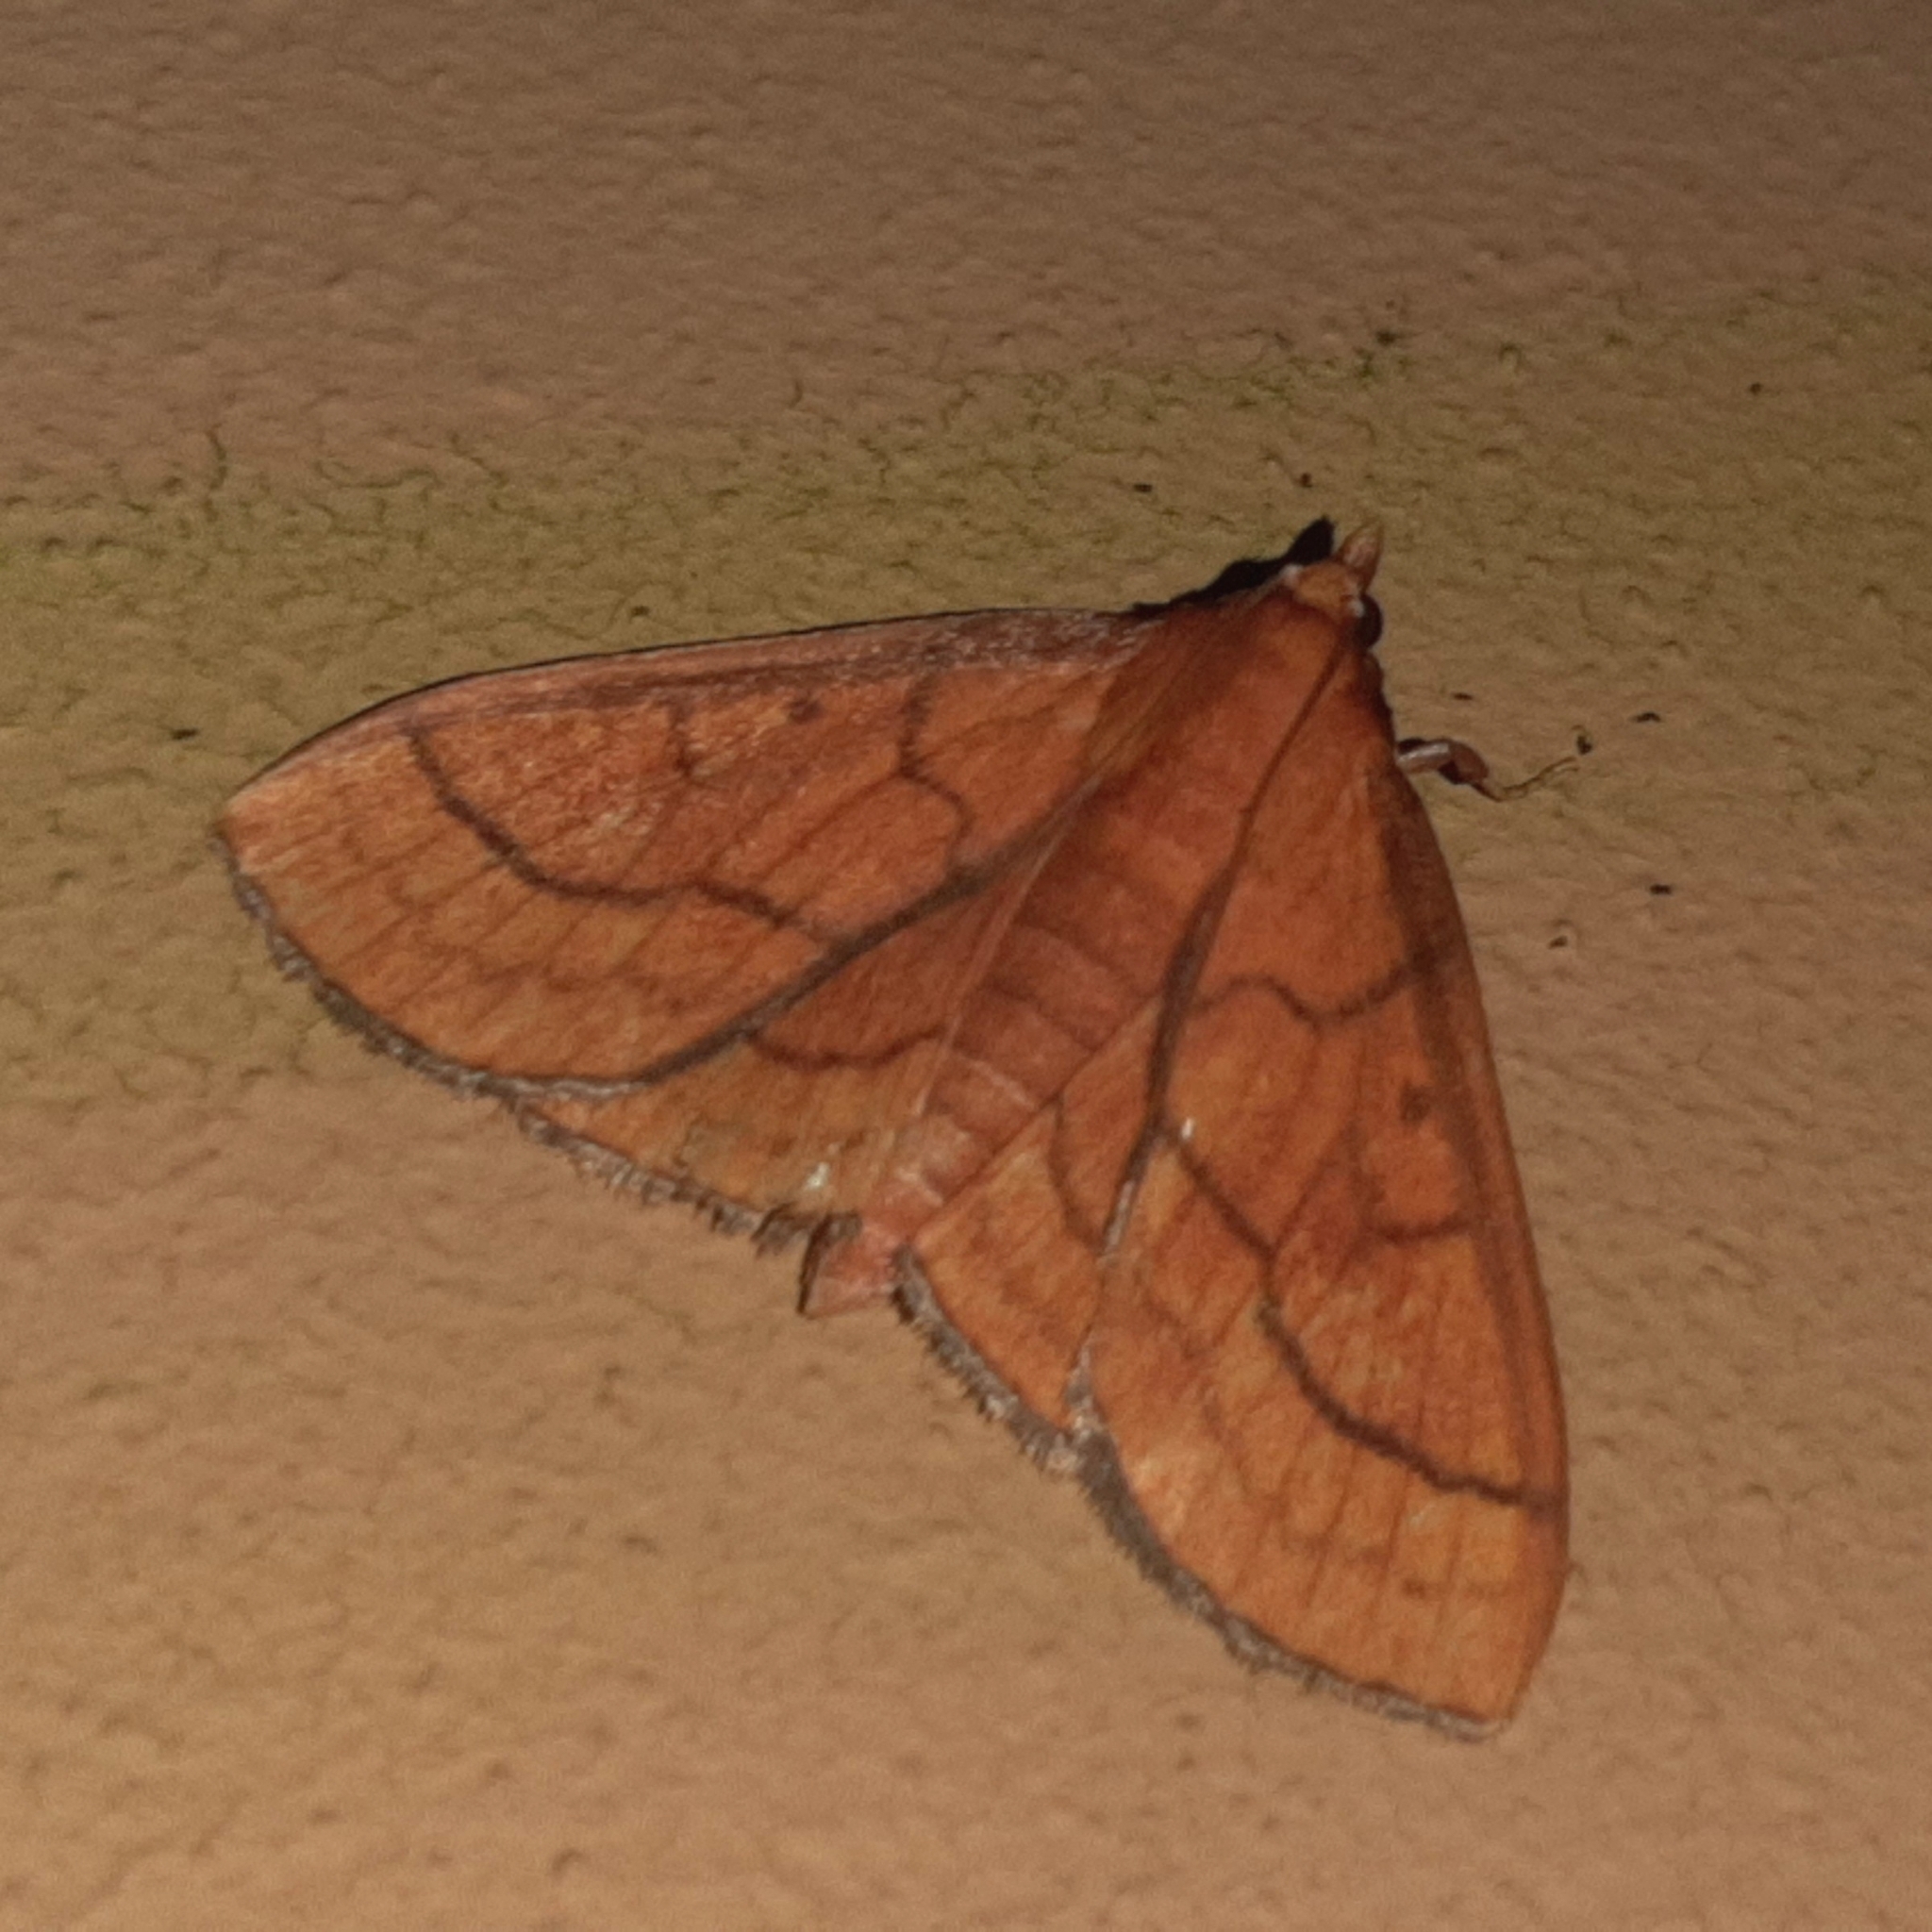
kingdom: Animalia
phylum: Arthropoda
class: Insecta
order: Lepidoptera
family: Crambidae
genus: Polygrammodes
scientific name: Polygrammodes hercules
